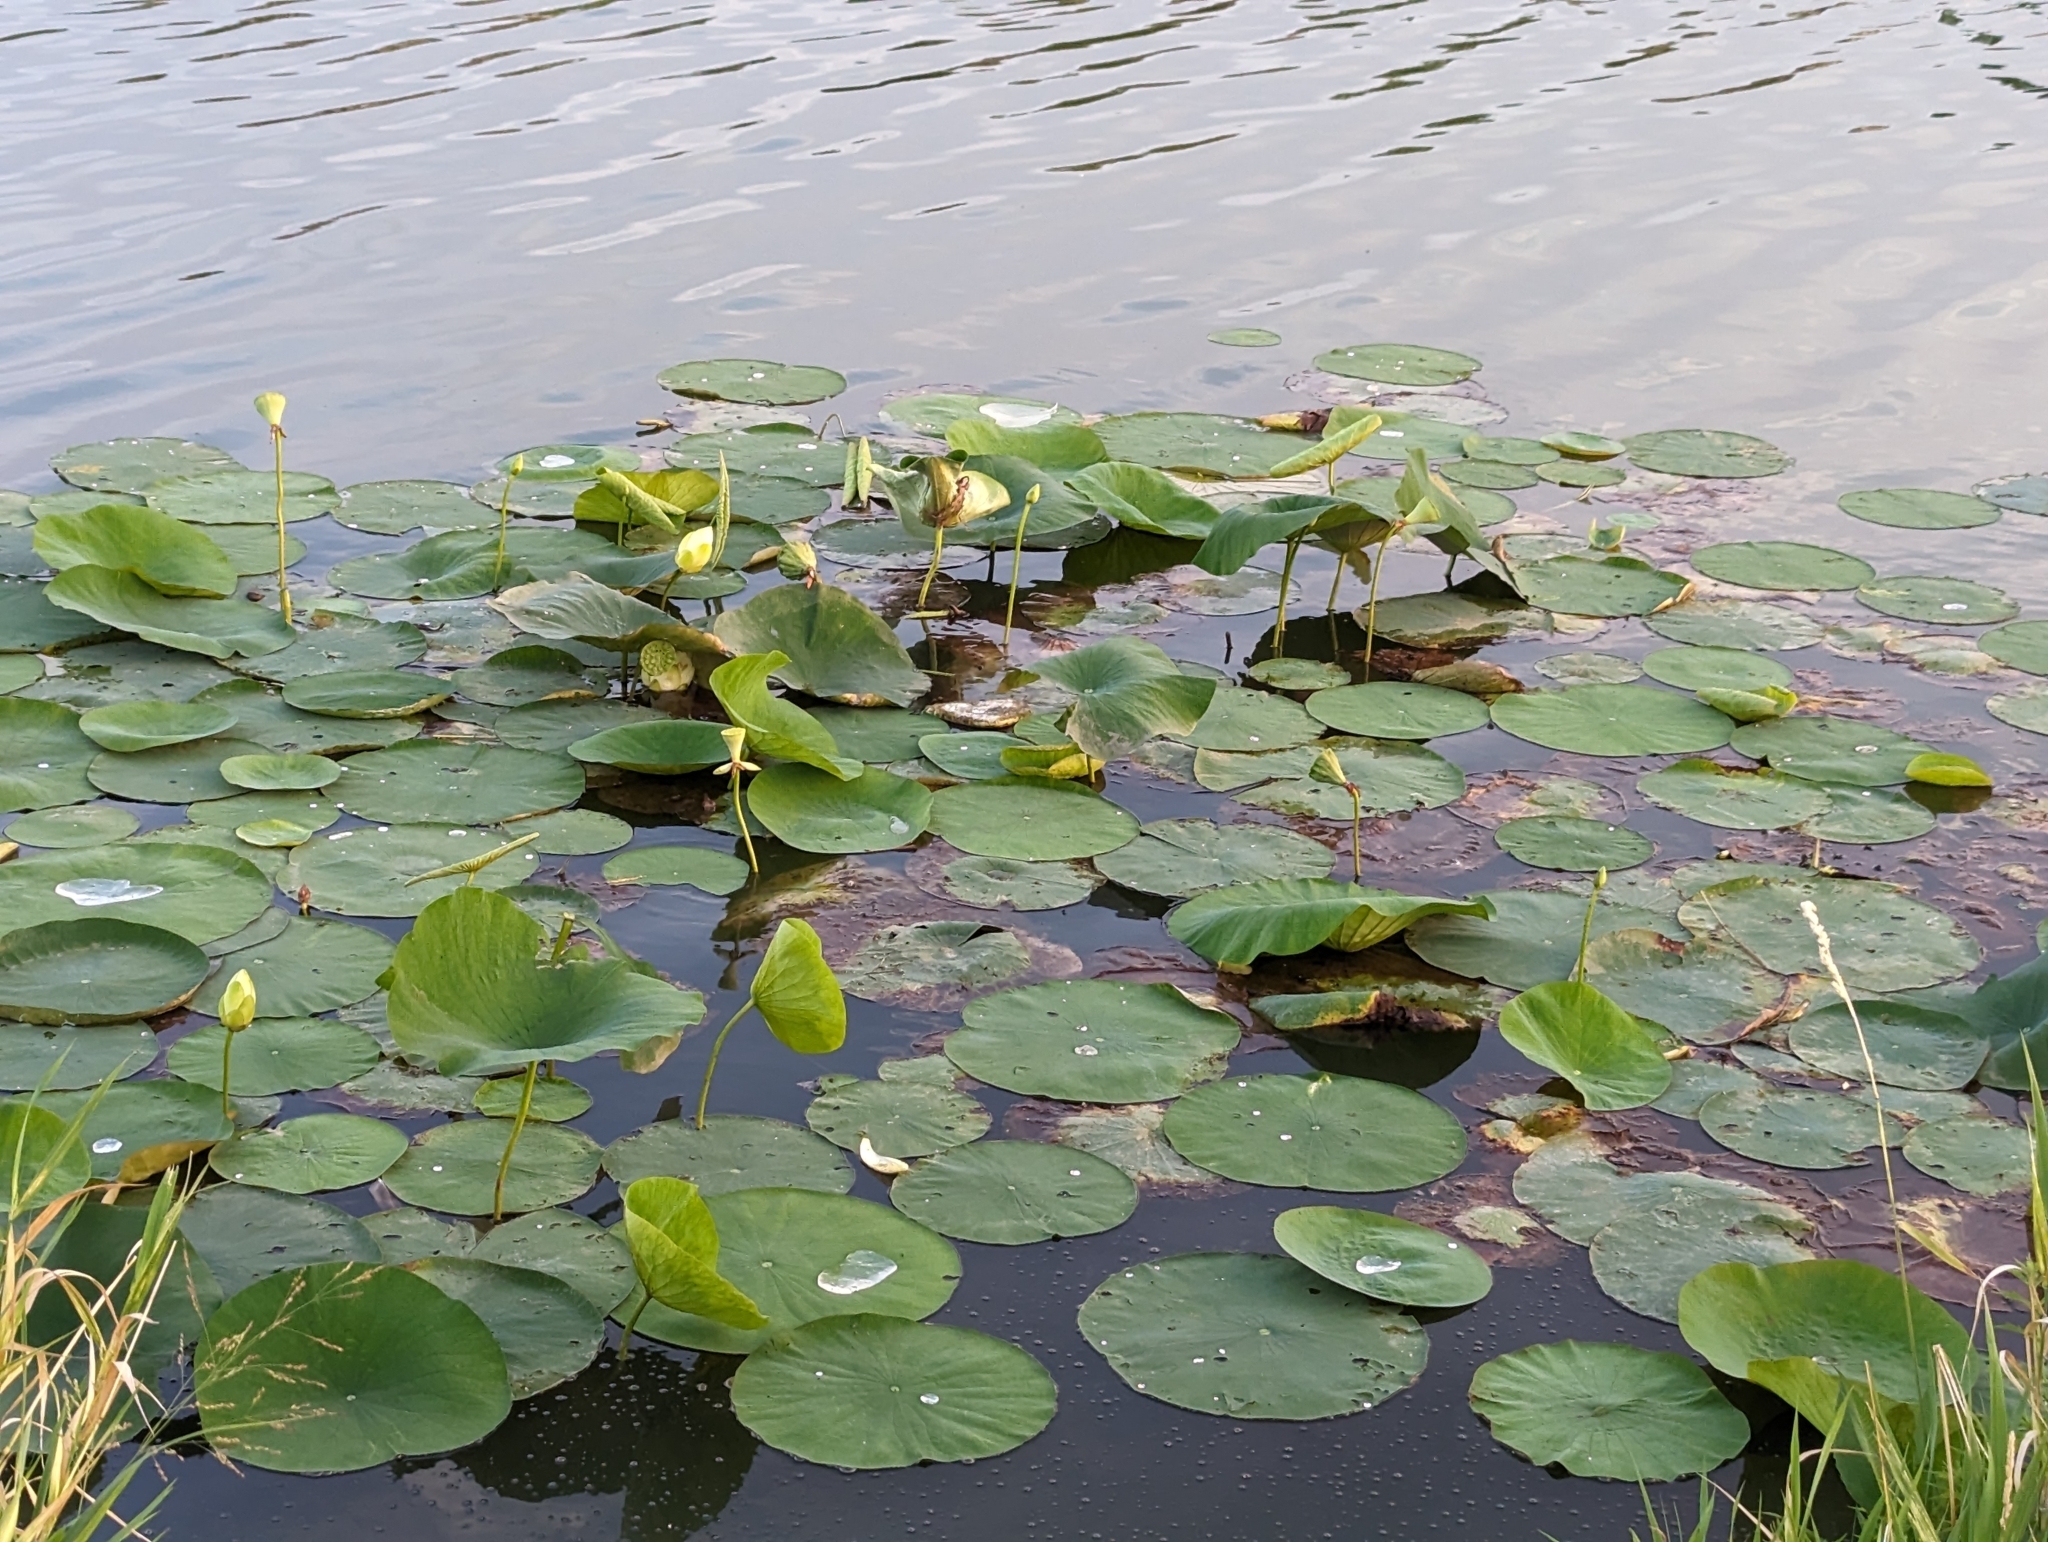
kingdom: Plantae
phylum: Tracheophyta
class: Magnoliopsida
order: Proteales
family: Nelumbonaceae
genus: Nelumbo
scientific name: Nelumbo lutea
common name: American lotus
